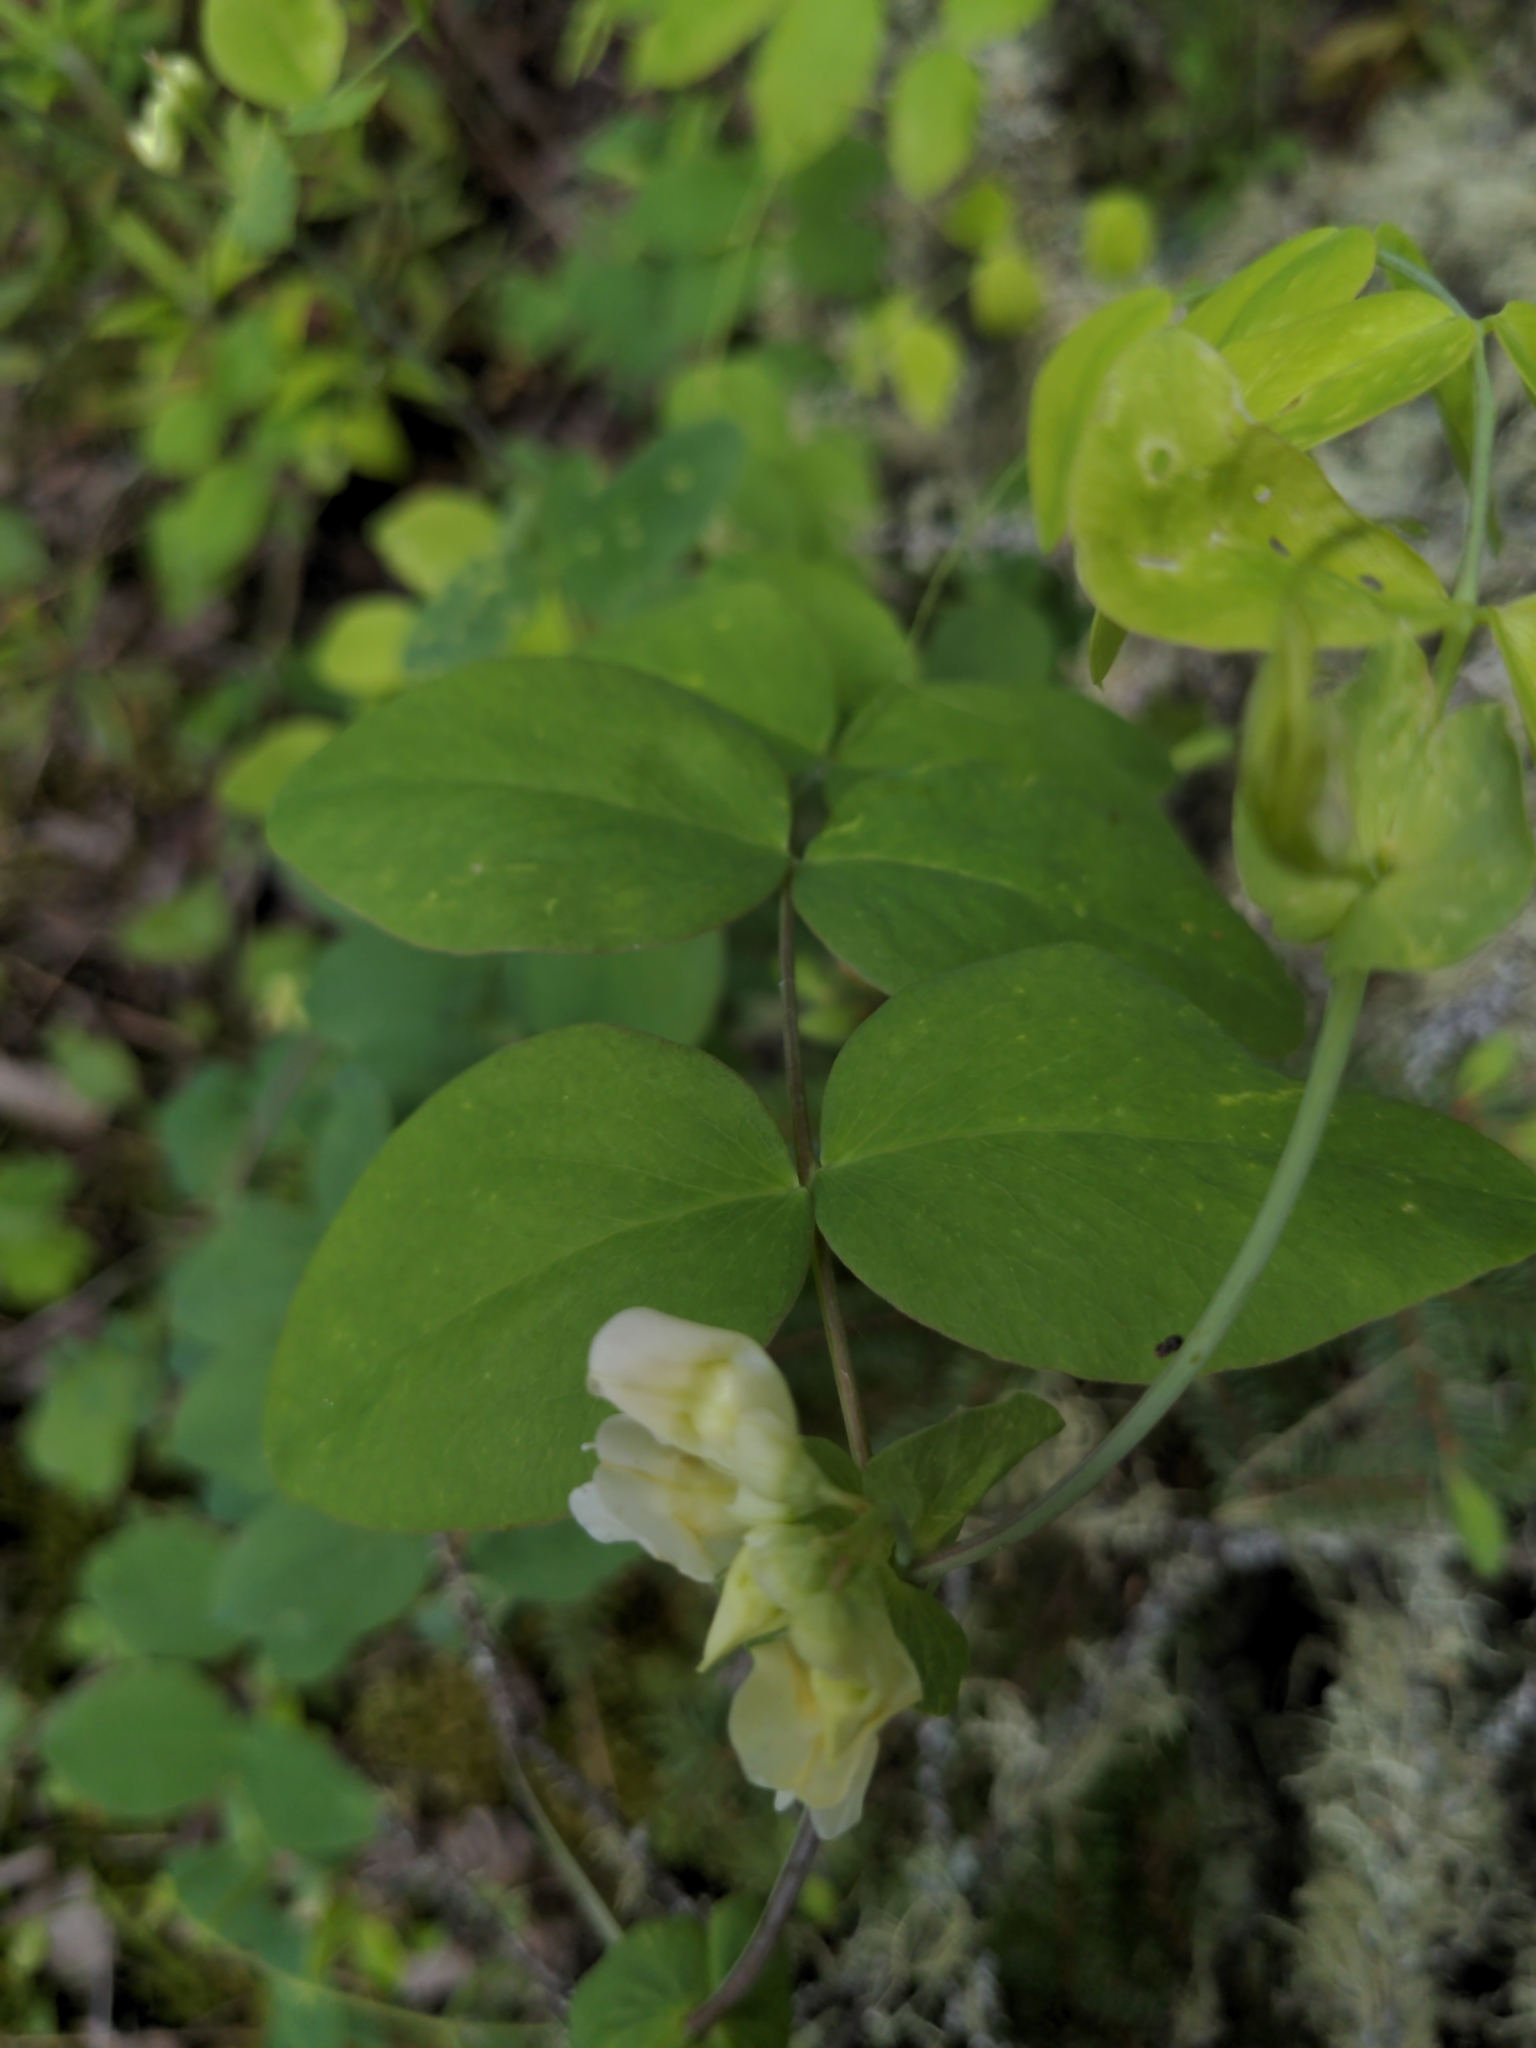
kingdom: Plantae
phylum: Tracheophyta
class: Magnoliopsida
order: Fabales
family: Fabaceae
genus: Lathyrus
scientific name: Lathyrus ochroleucus
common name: Pale vetchling
